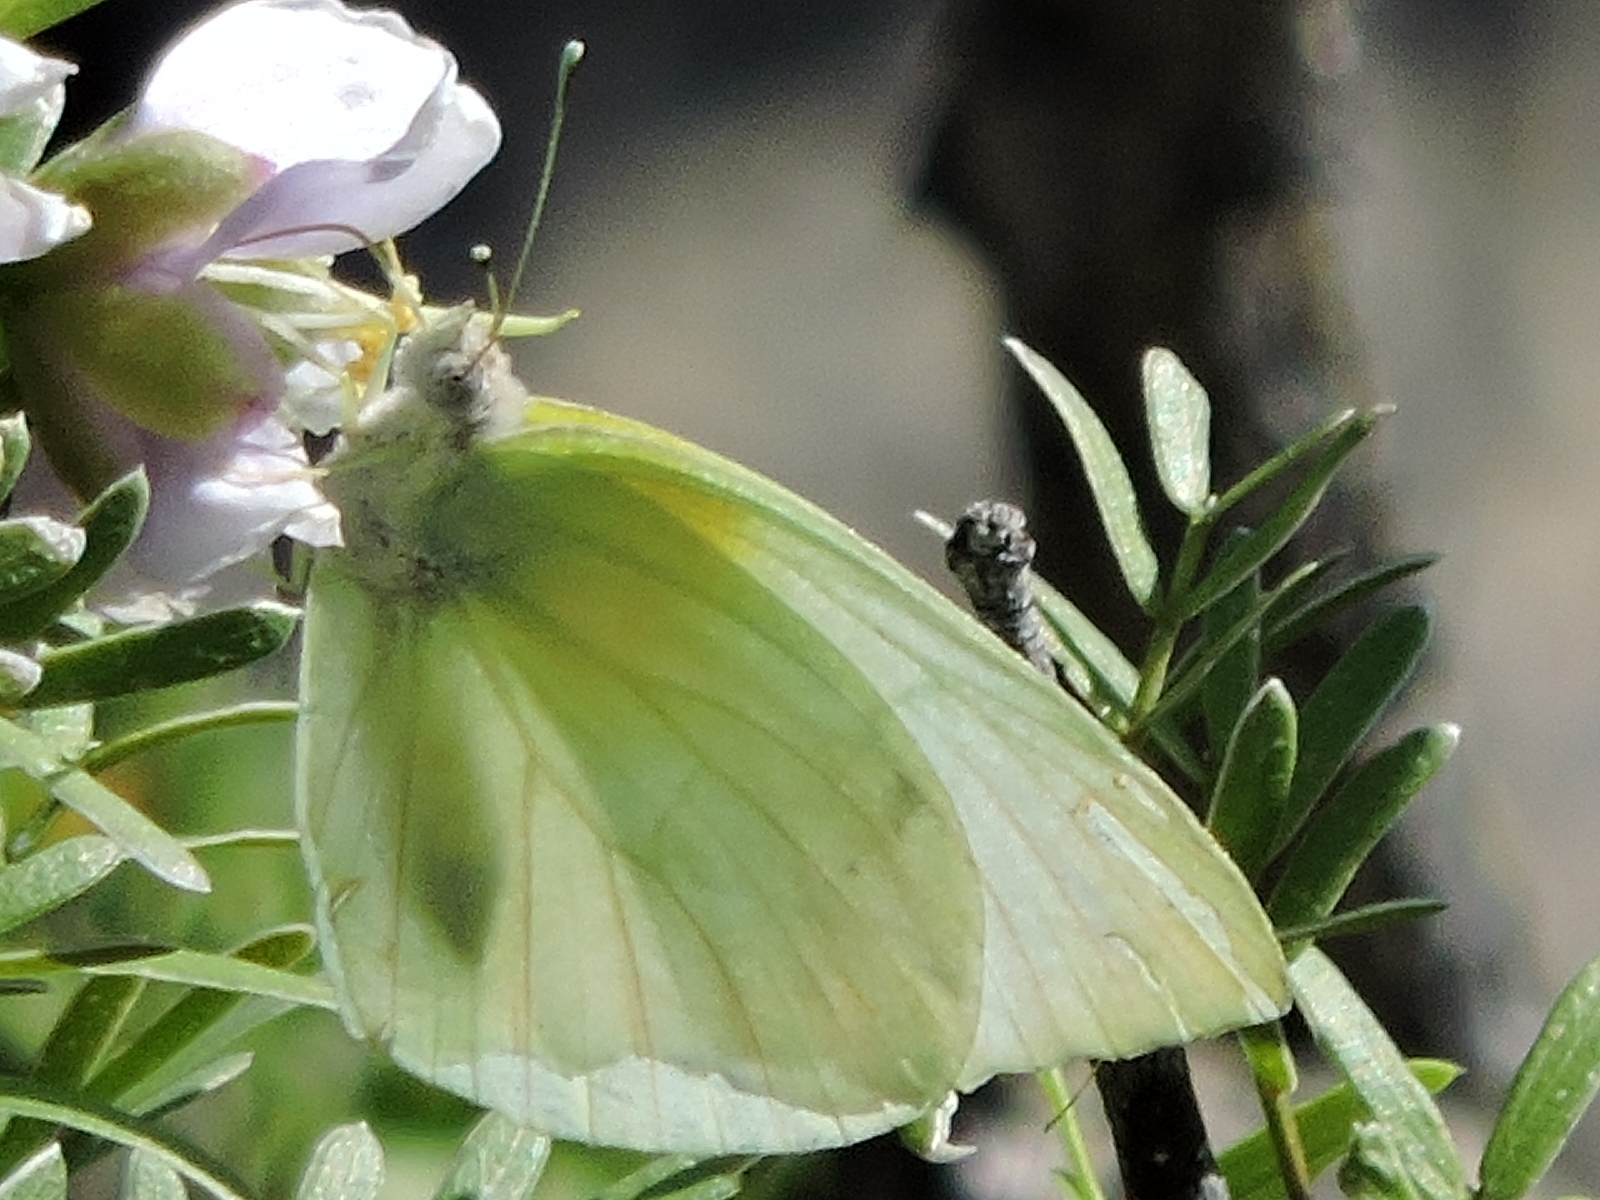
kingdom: Animalia
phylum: Arthropoda
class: Insecta
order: Lepidoptera
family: Pieridae
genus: Kricogonia
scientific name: Kricogonia lyside
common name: Guayacan sulphur,
